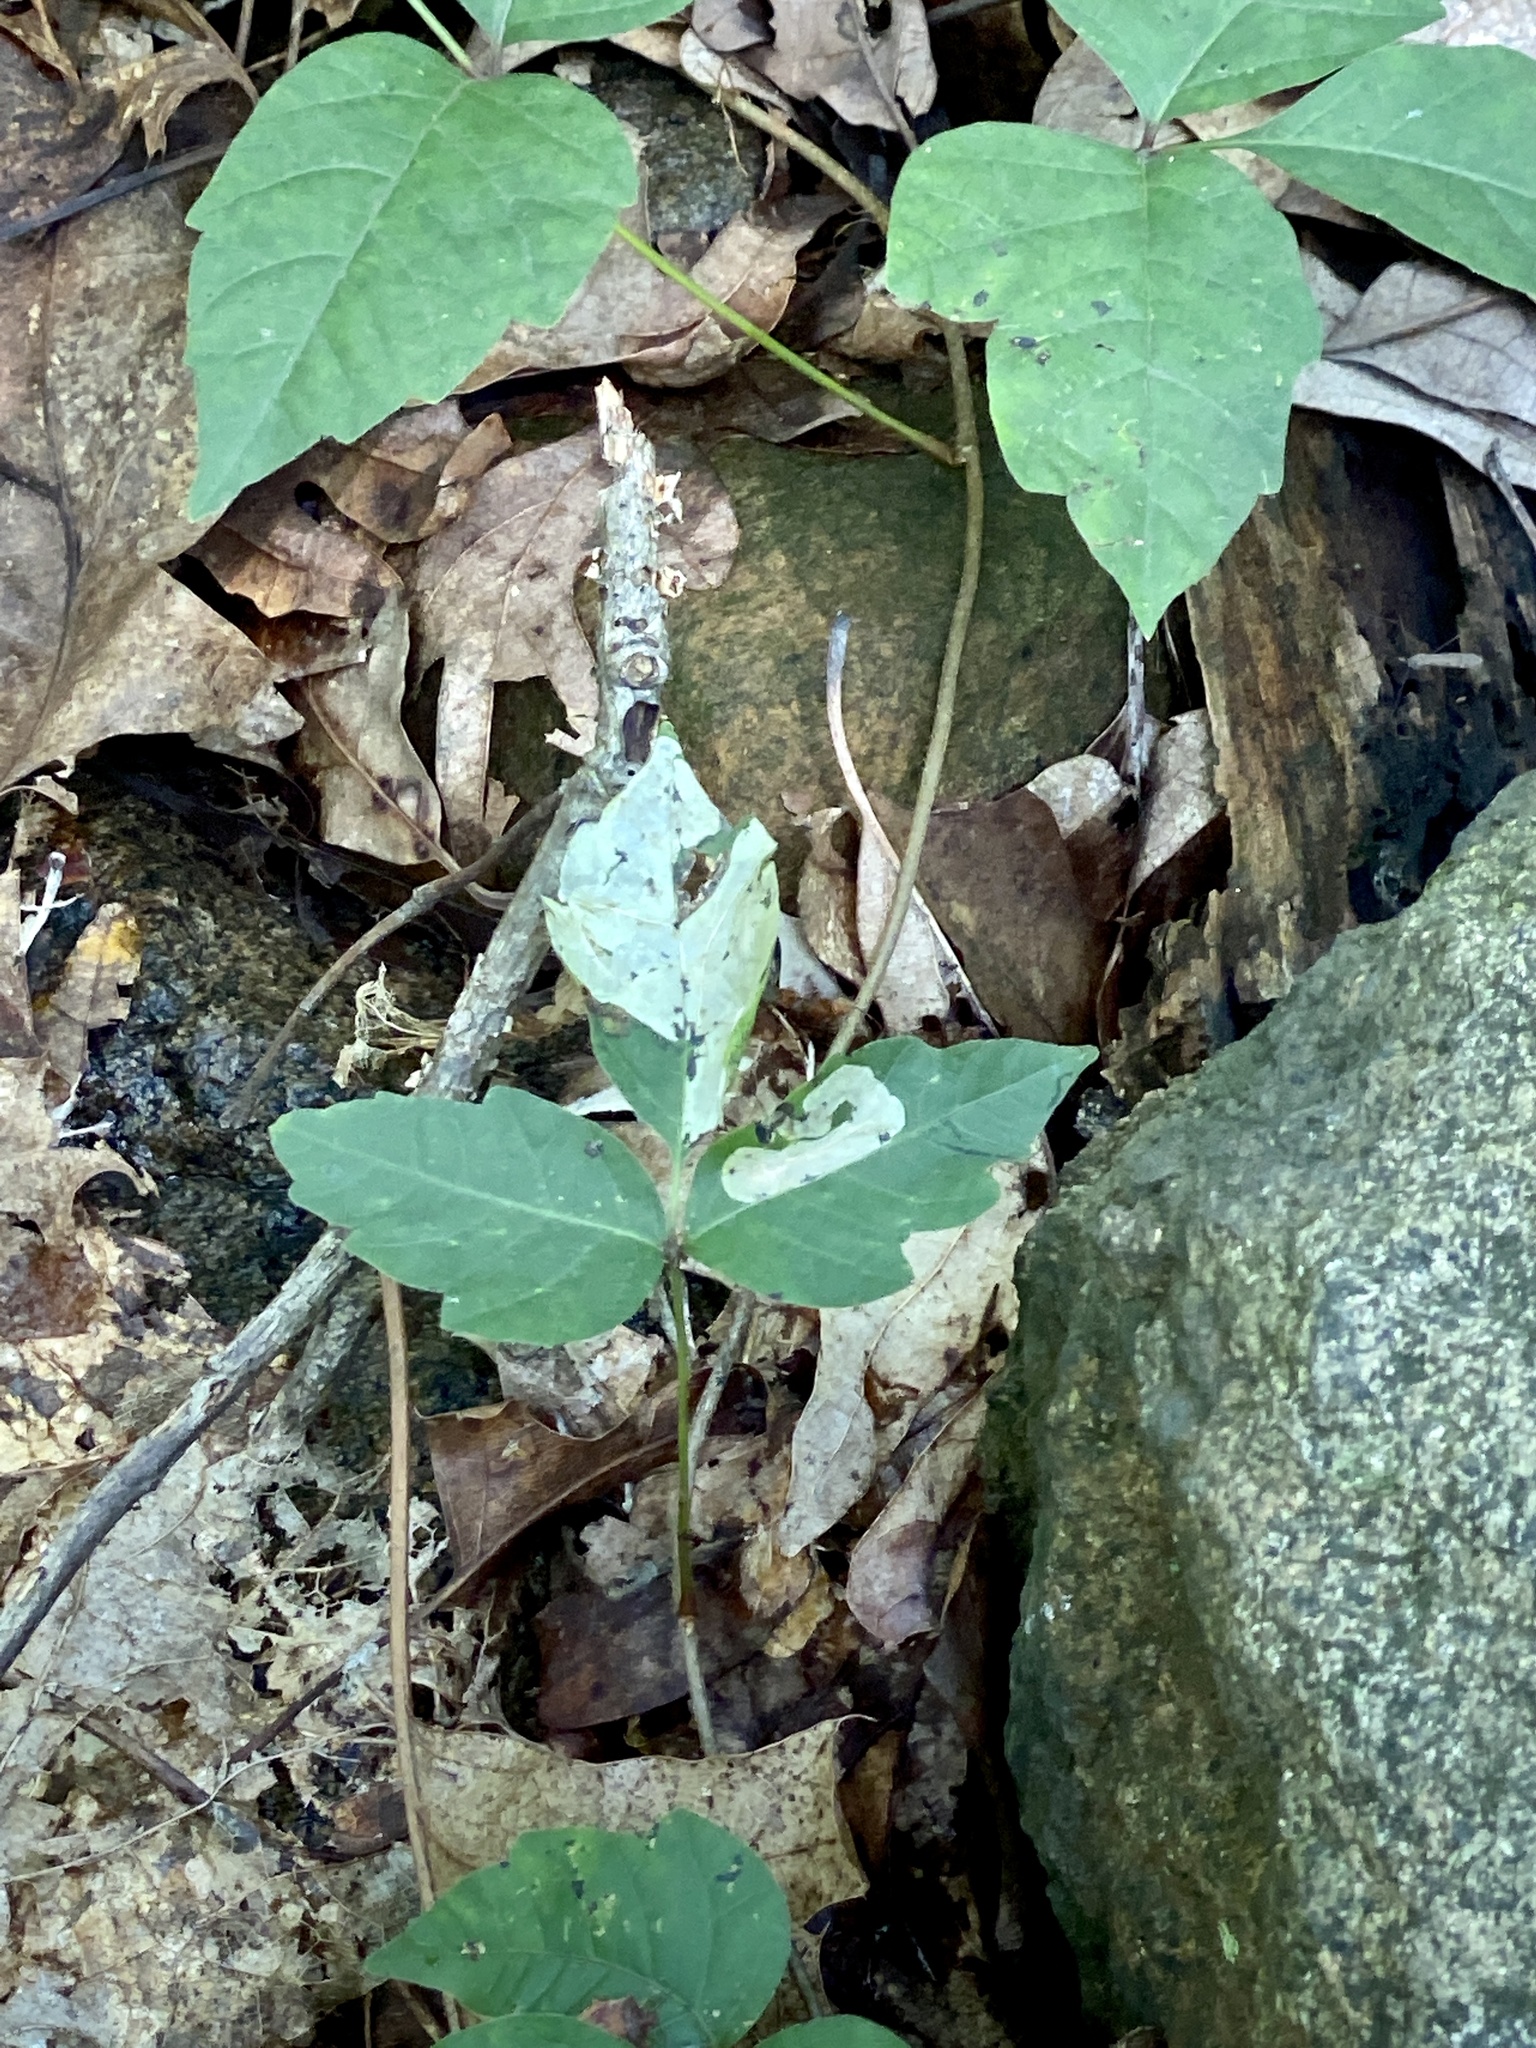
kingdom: Animalia
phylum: Arthropoda
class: Insecta
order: Lepidoptera
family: Gracillariidae
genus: Cameraria
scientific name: Cameraria guttifinitella
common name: Poison ivy leaf-miner moth
